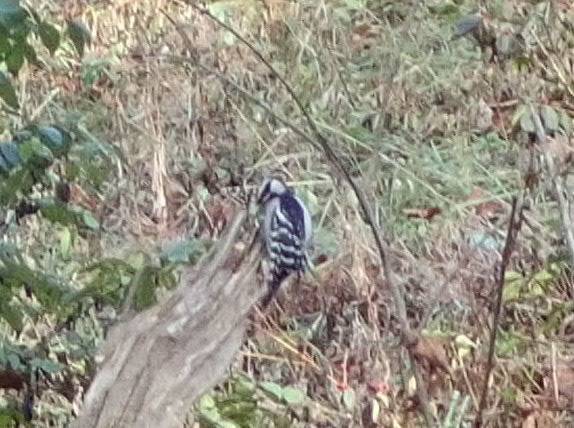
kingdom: Animalia
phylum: Chordata
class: Aves
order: Piciformes
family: Picidae
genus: Dryobates
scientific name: Dryobates
